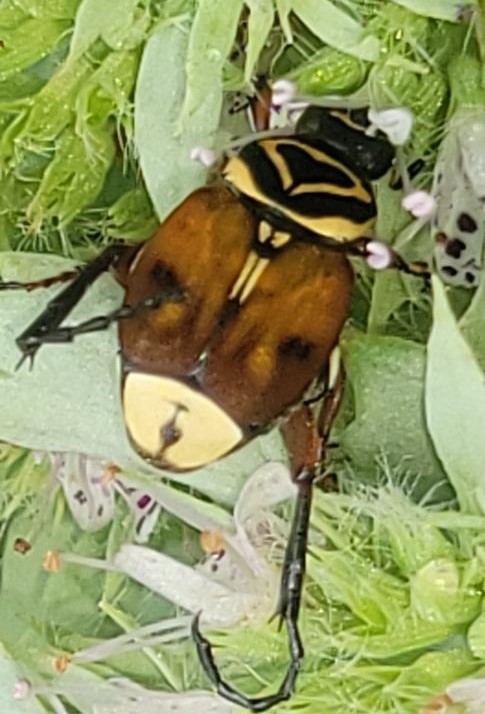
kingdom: Animalia
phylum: Arthropoda
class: Insecta
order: Coleoptera
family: Scarabaeidae
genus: Trigonopeltastes
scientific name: Trigonopeltastes delta
